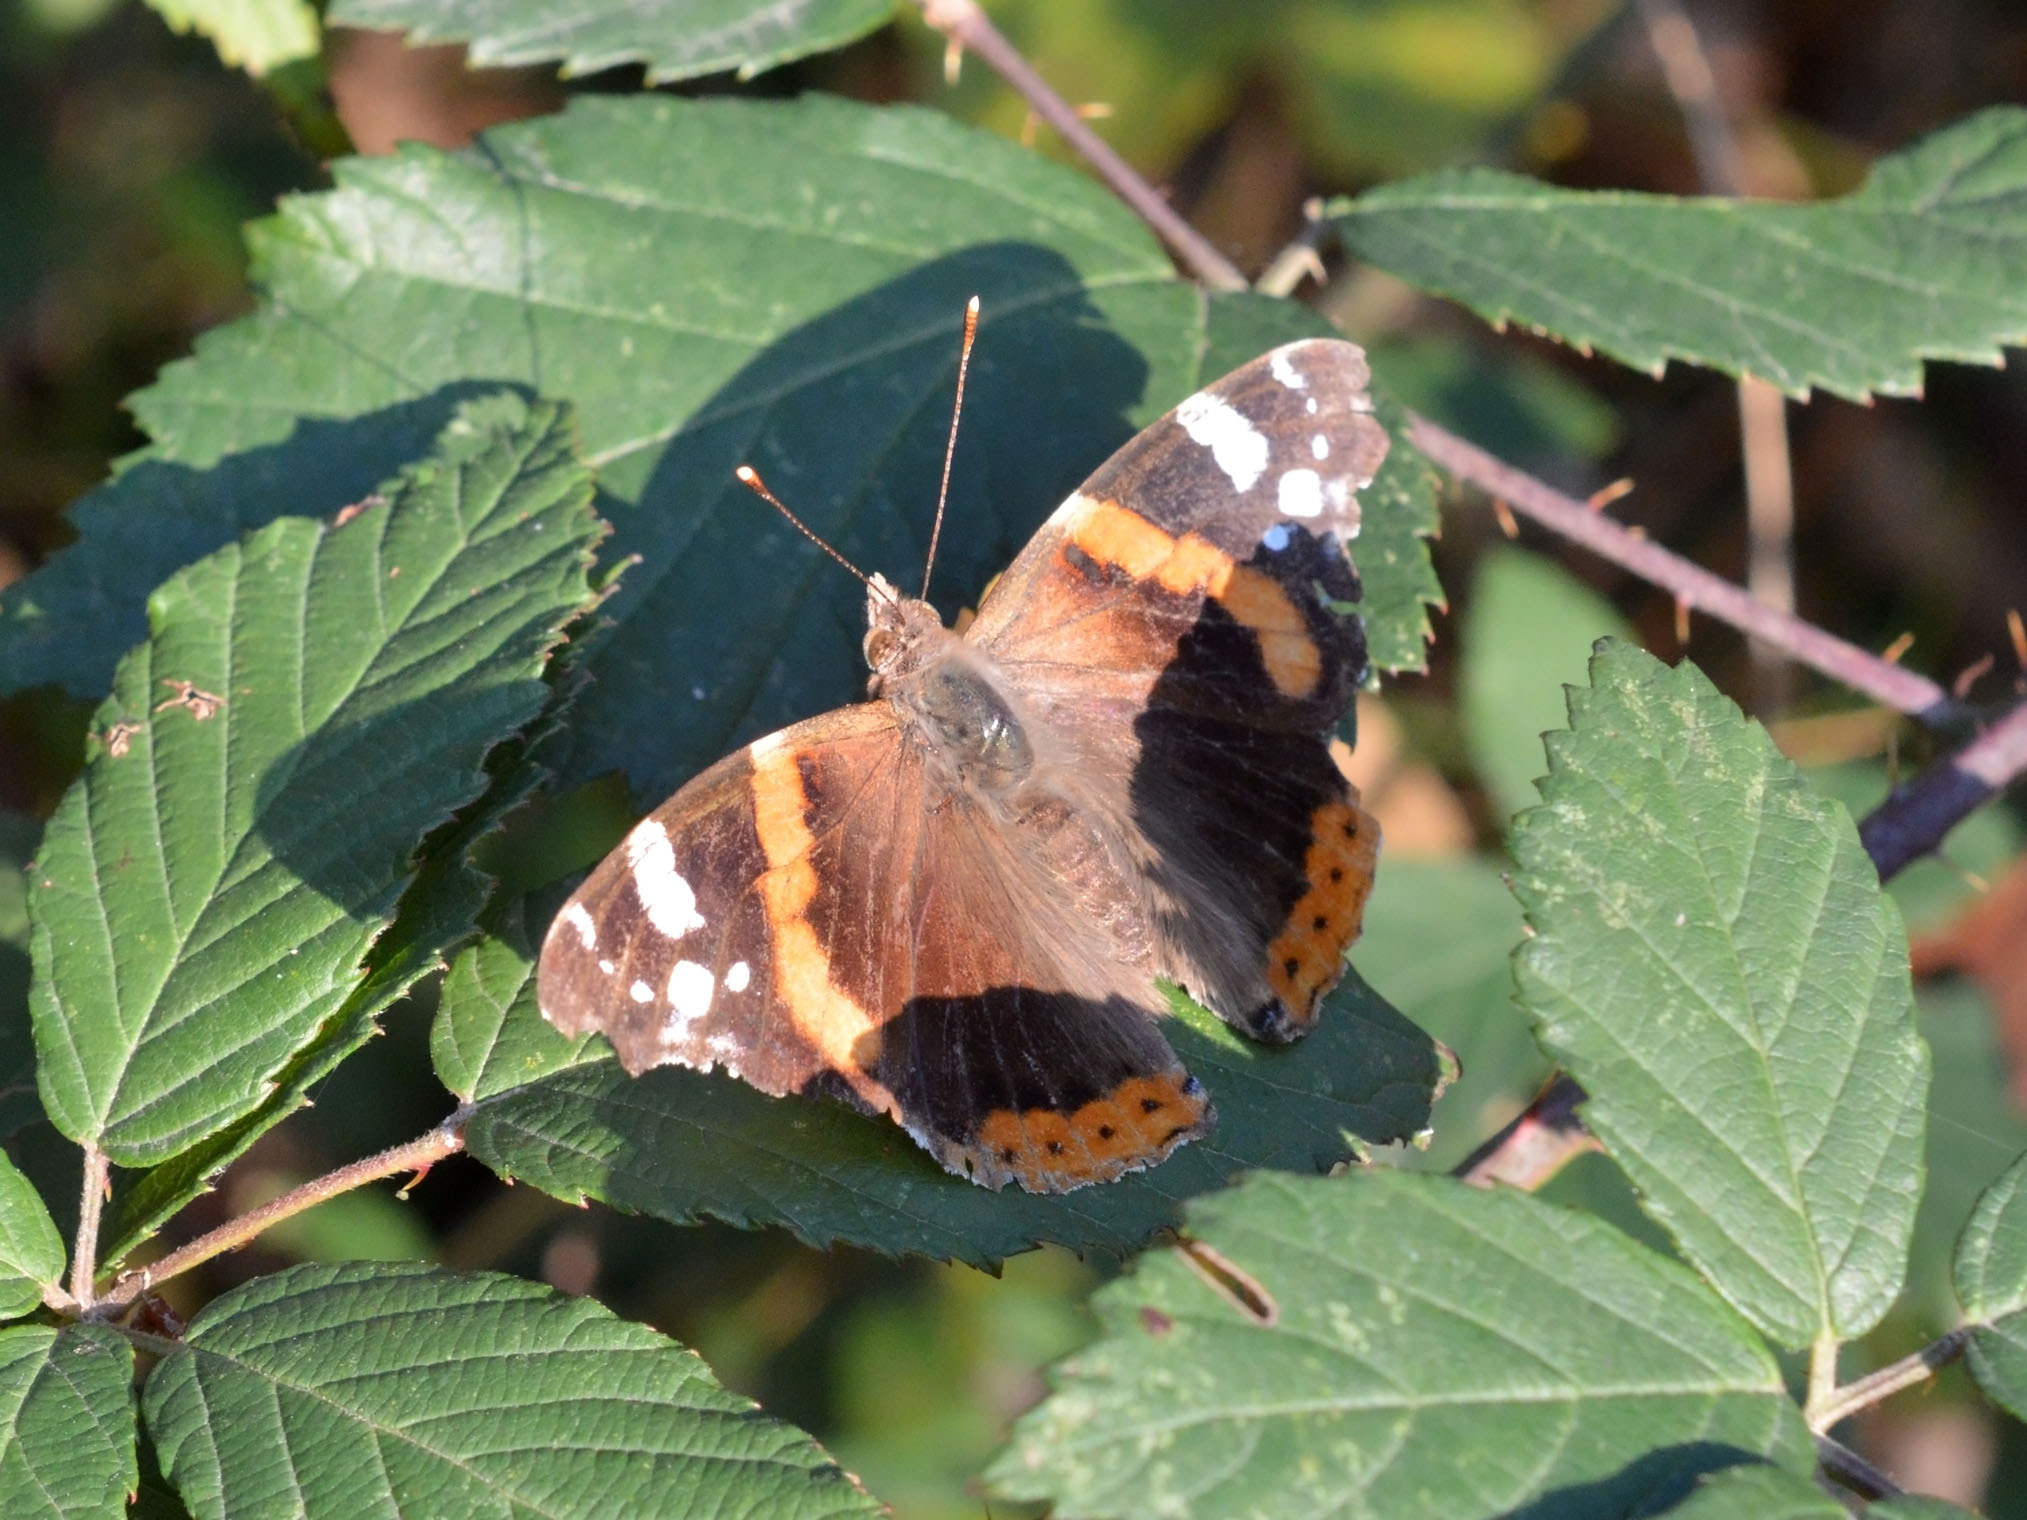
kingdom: Animalia
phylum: Arthropoda
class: Insecta
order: Lepidoptera
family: Nymphalidae
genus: Vanessa
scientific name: Vanessa atalanta
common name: Red admiral
